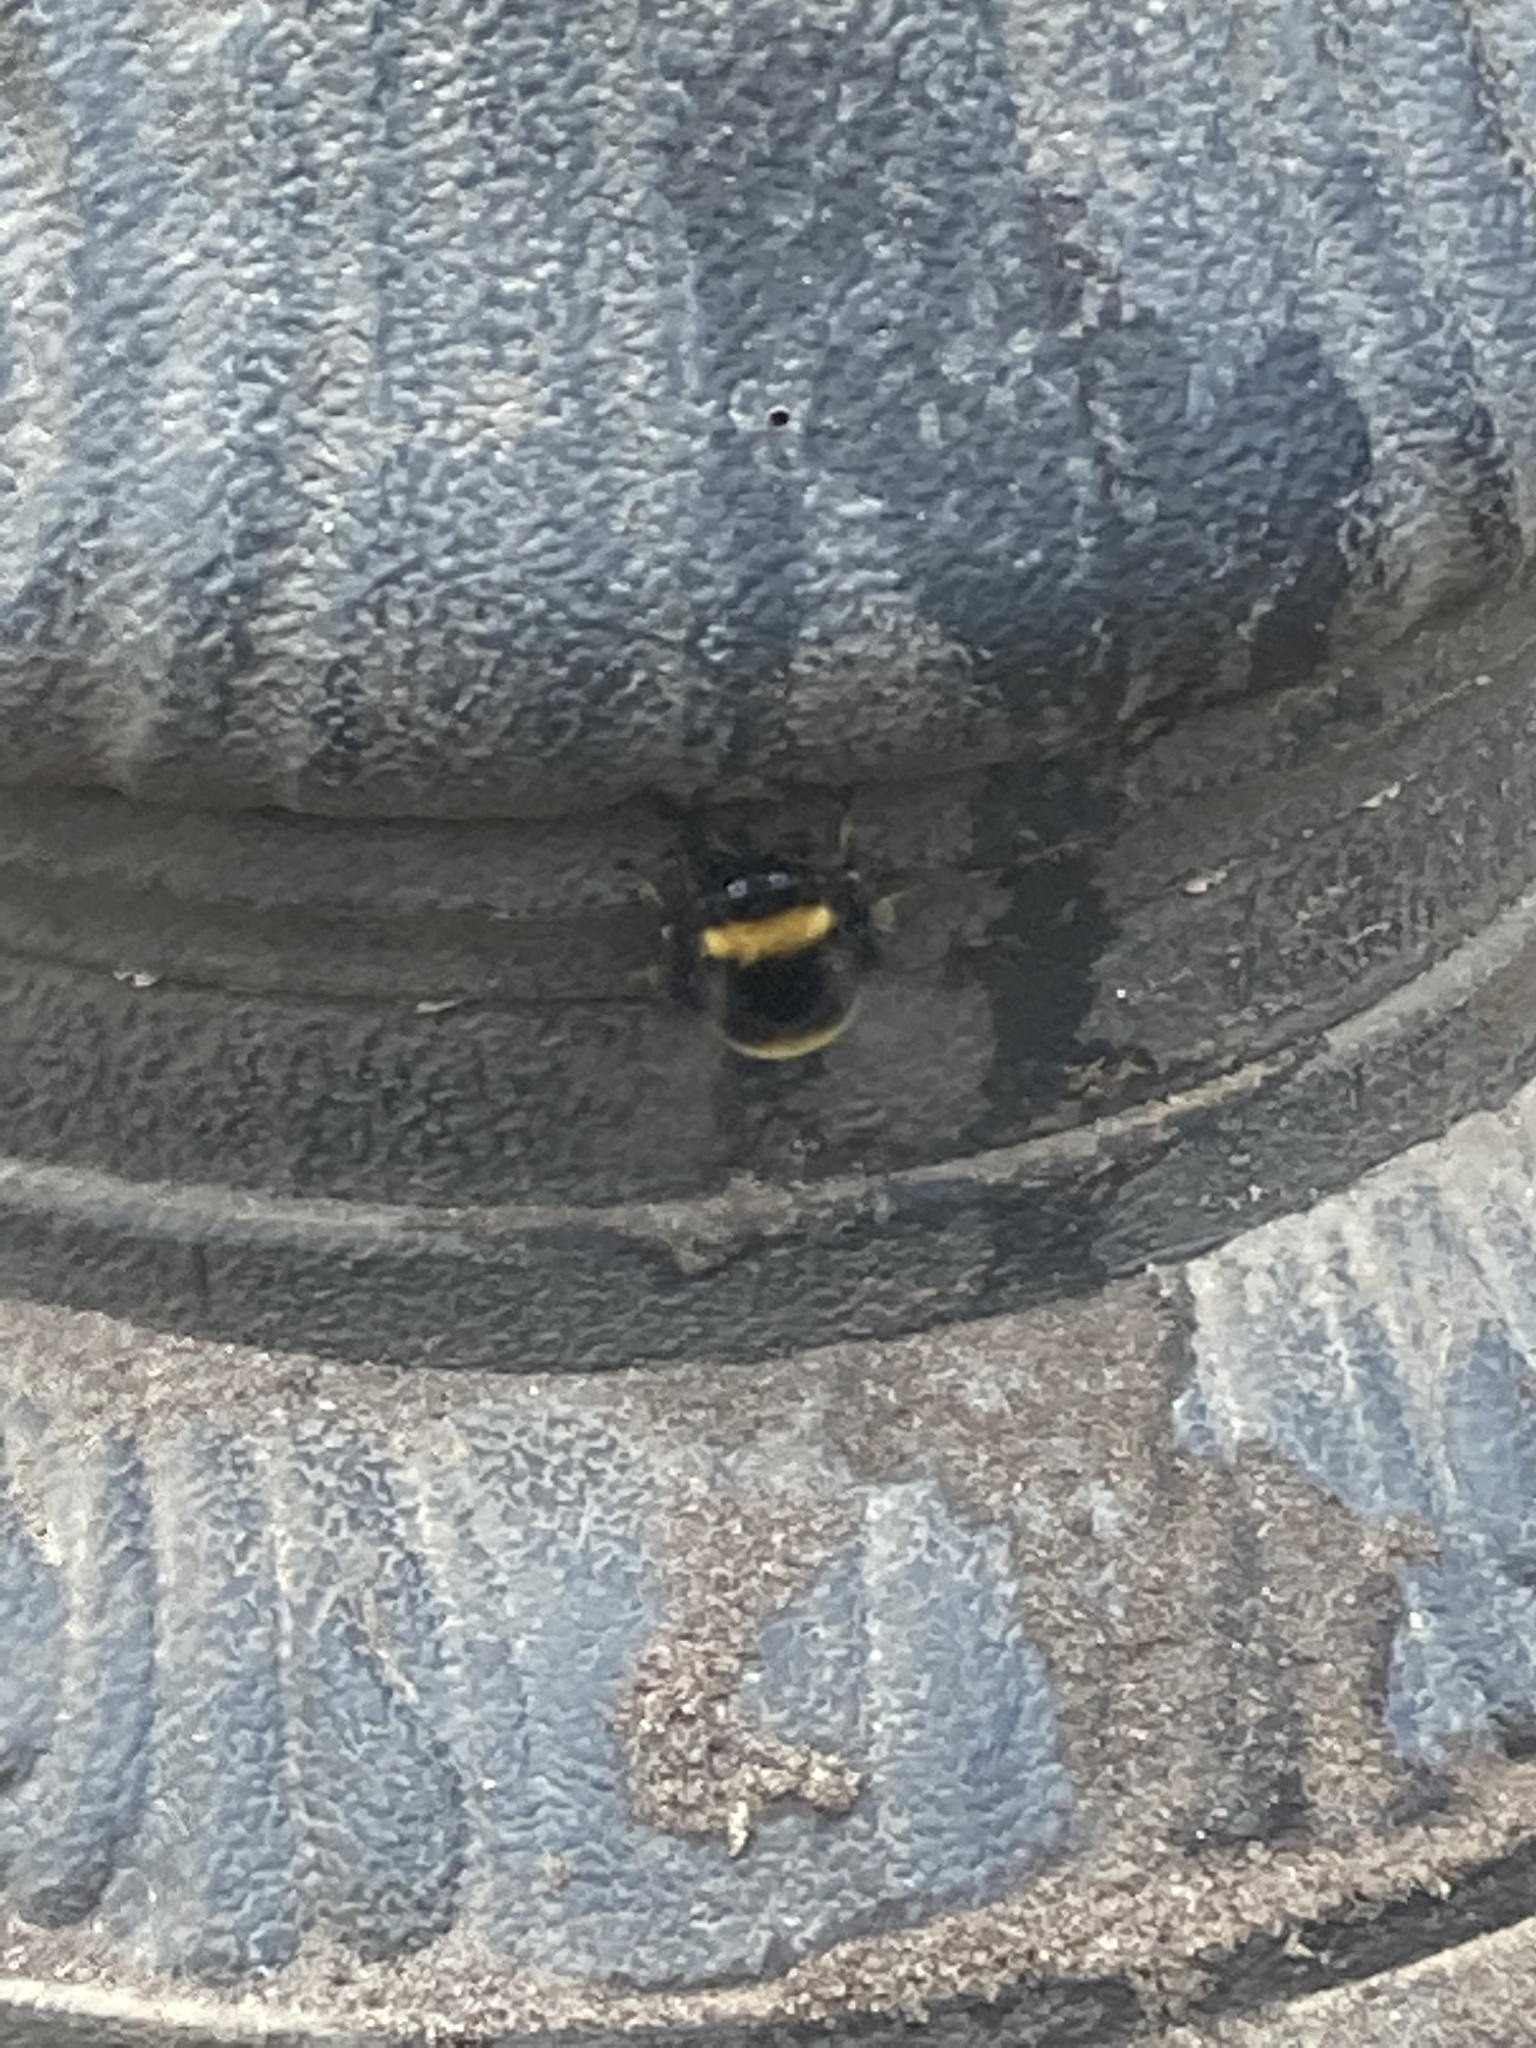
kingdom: Animalia
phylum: Arthropoda
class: Insecta
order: Hymenoptera
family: Apidae
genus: Bombus
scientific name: Bombus
